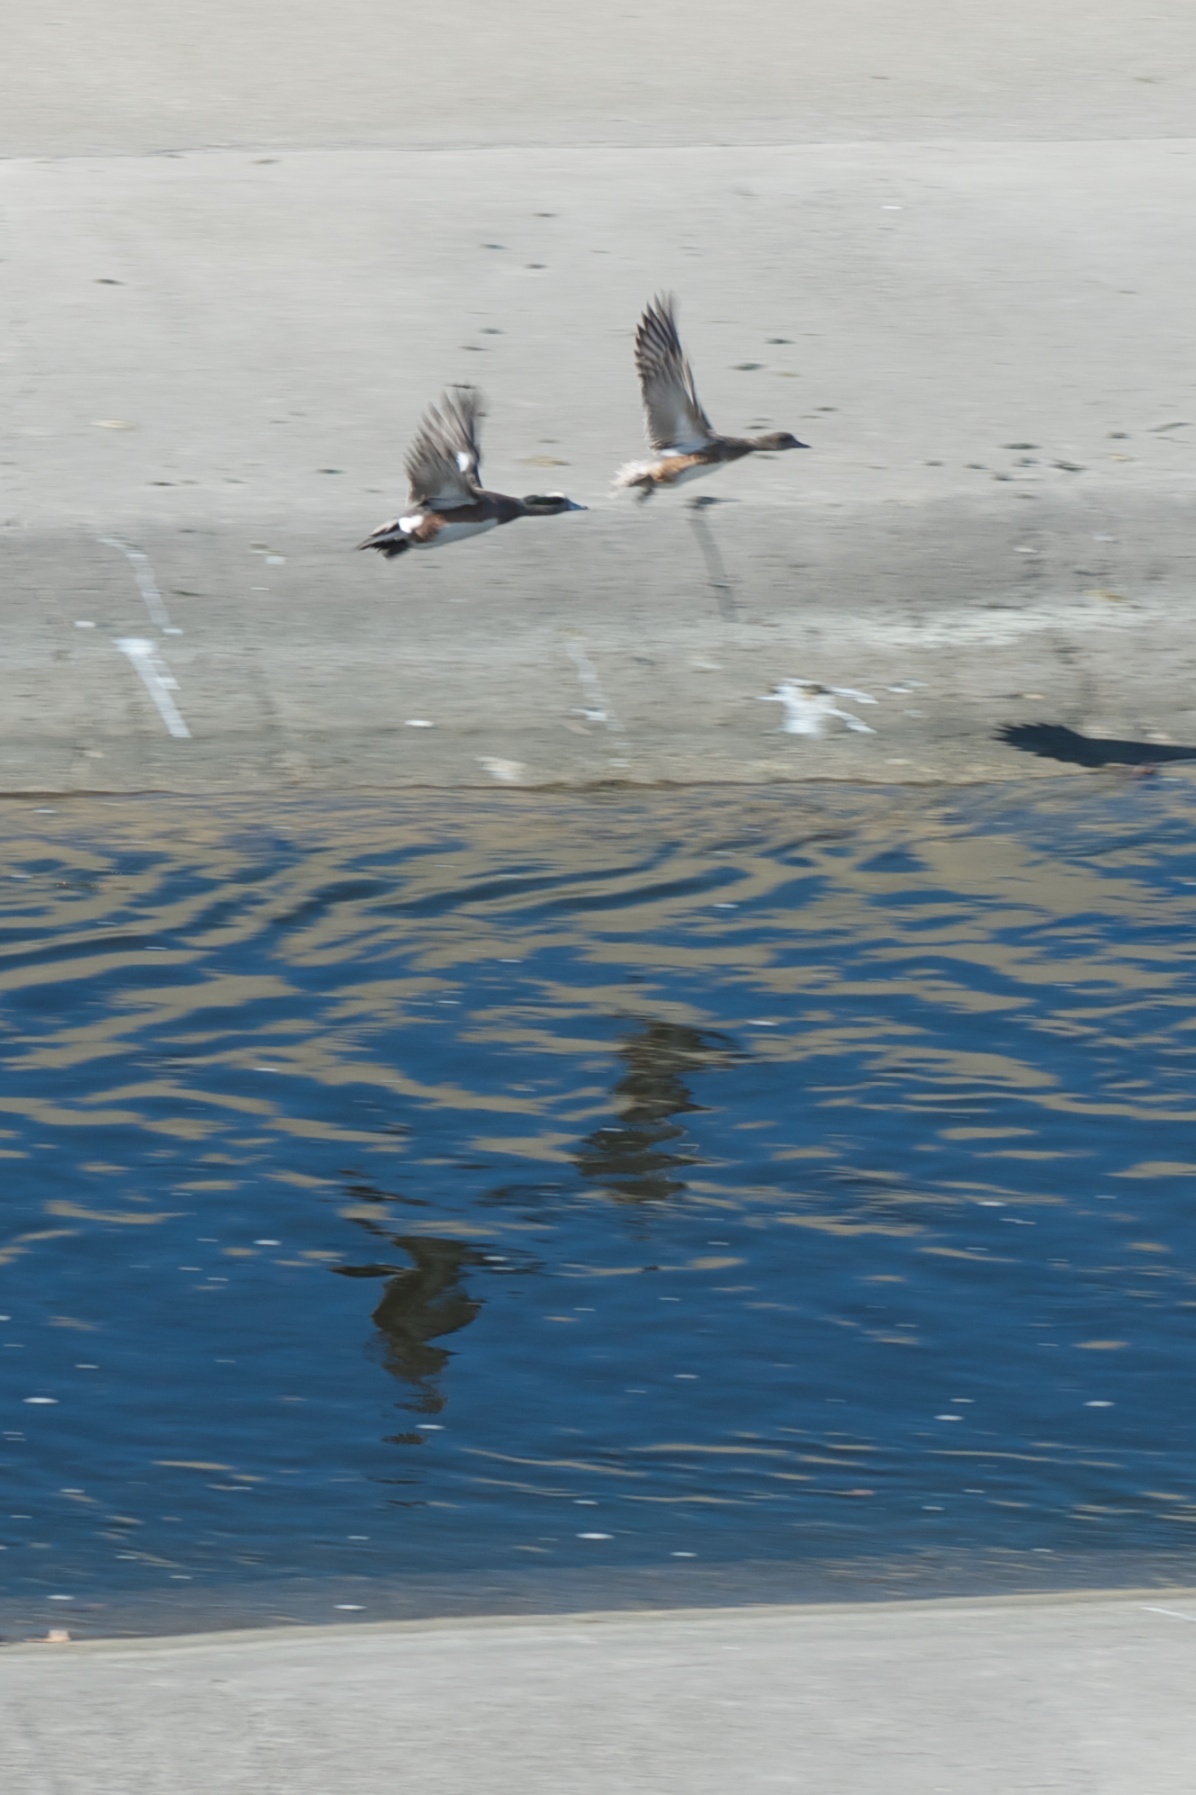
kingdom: Animalia
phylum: Chordata
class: Aves
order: Anseriformes
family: Anatidae
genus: Mareca
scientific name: Mareca americana
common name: American wigeon
